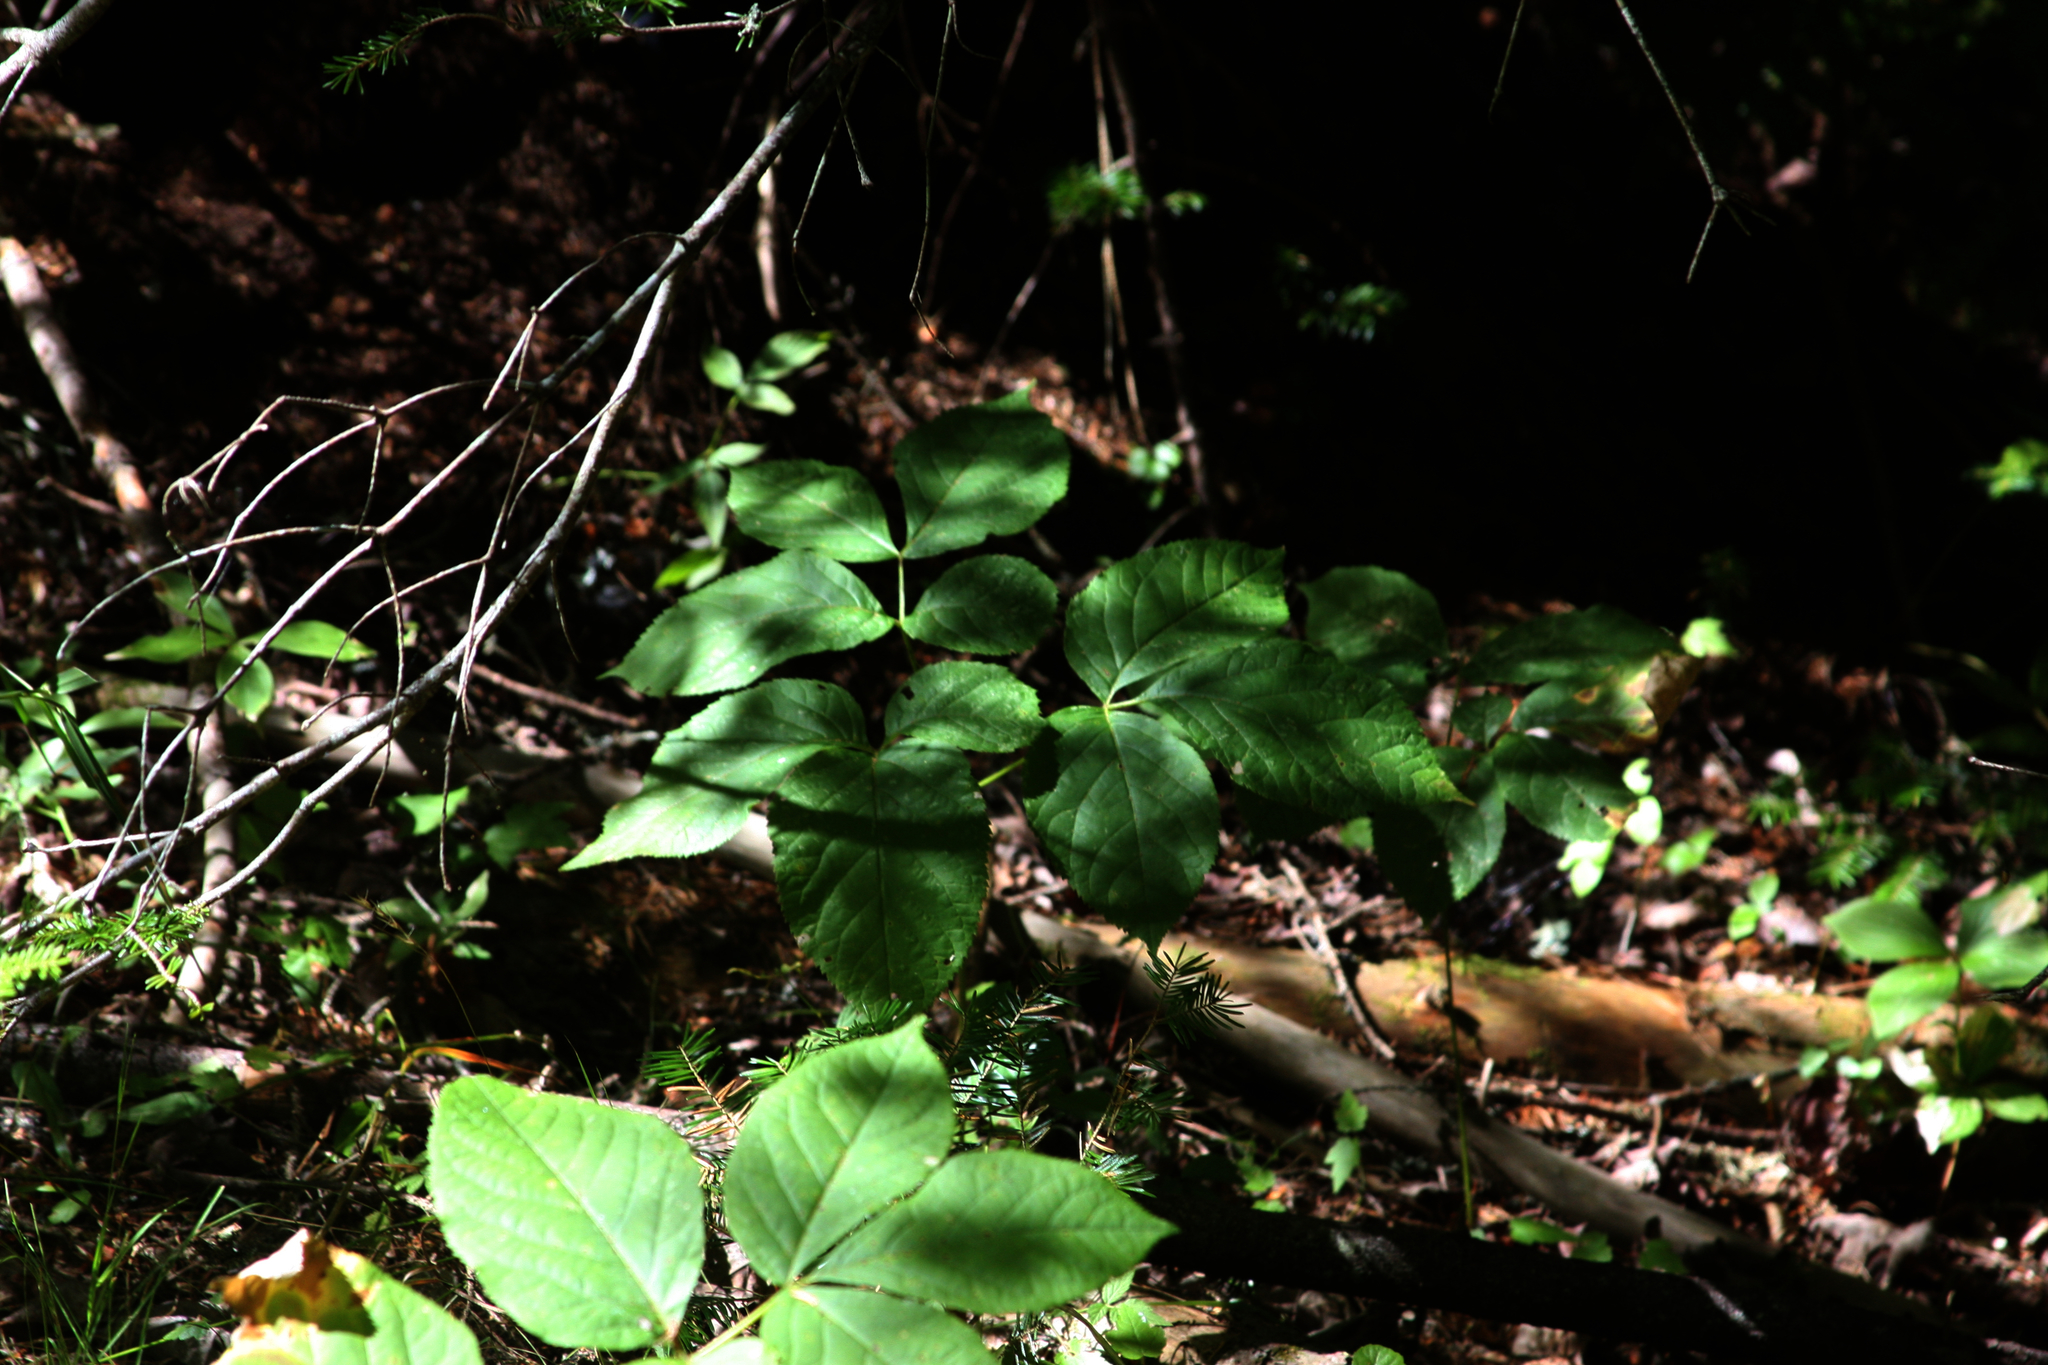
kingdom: Plantae
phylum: Tracheophyta
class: Magnoliopsida
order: Apiales
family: Araliaceae
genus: Aralia
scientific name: Aralia nudicaulis
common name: Wild sarsaparilla
